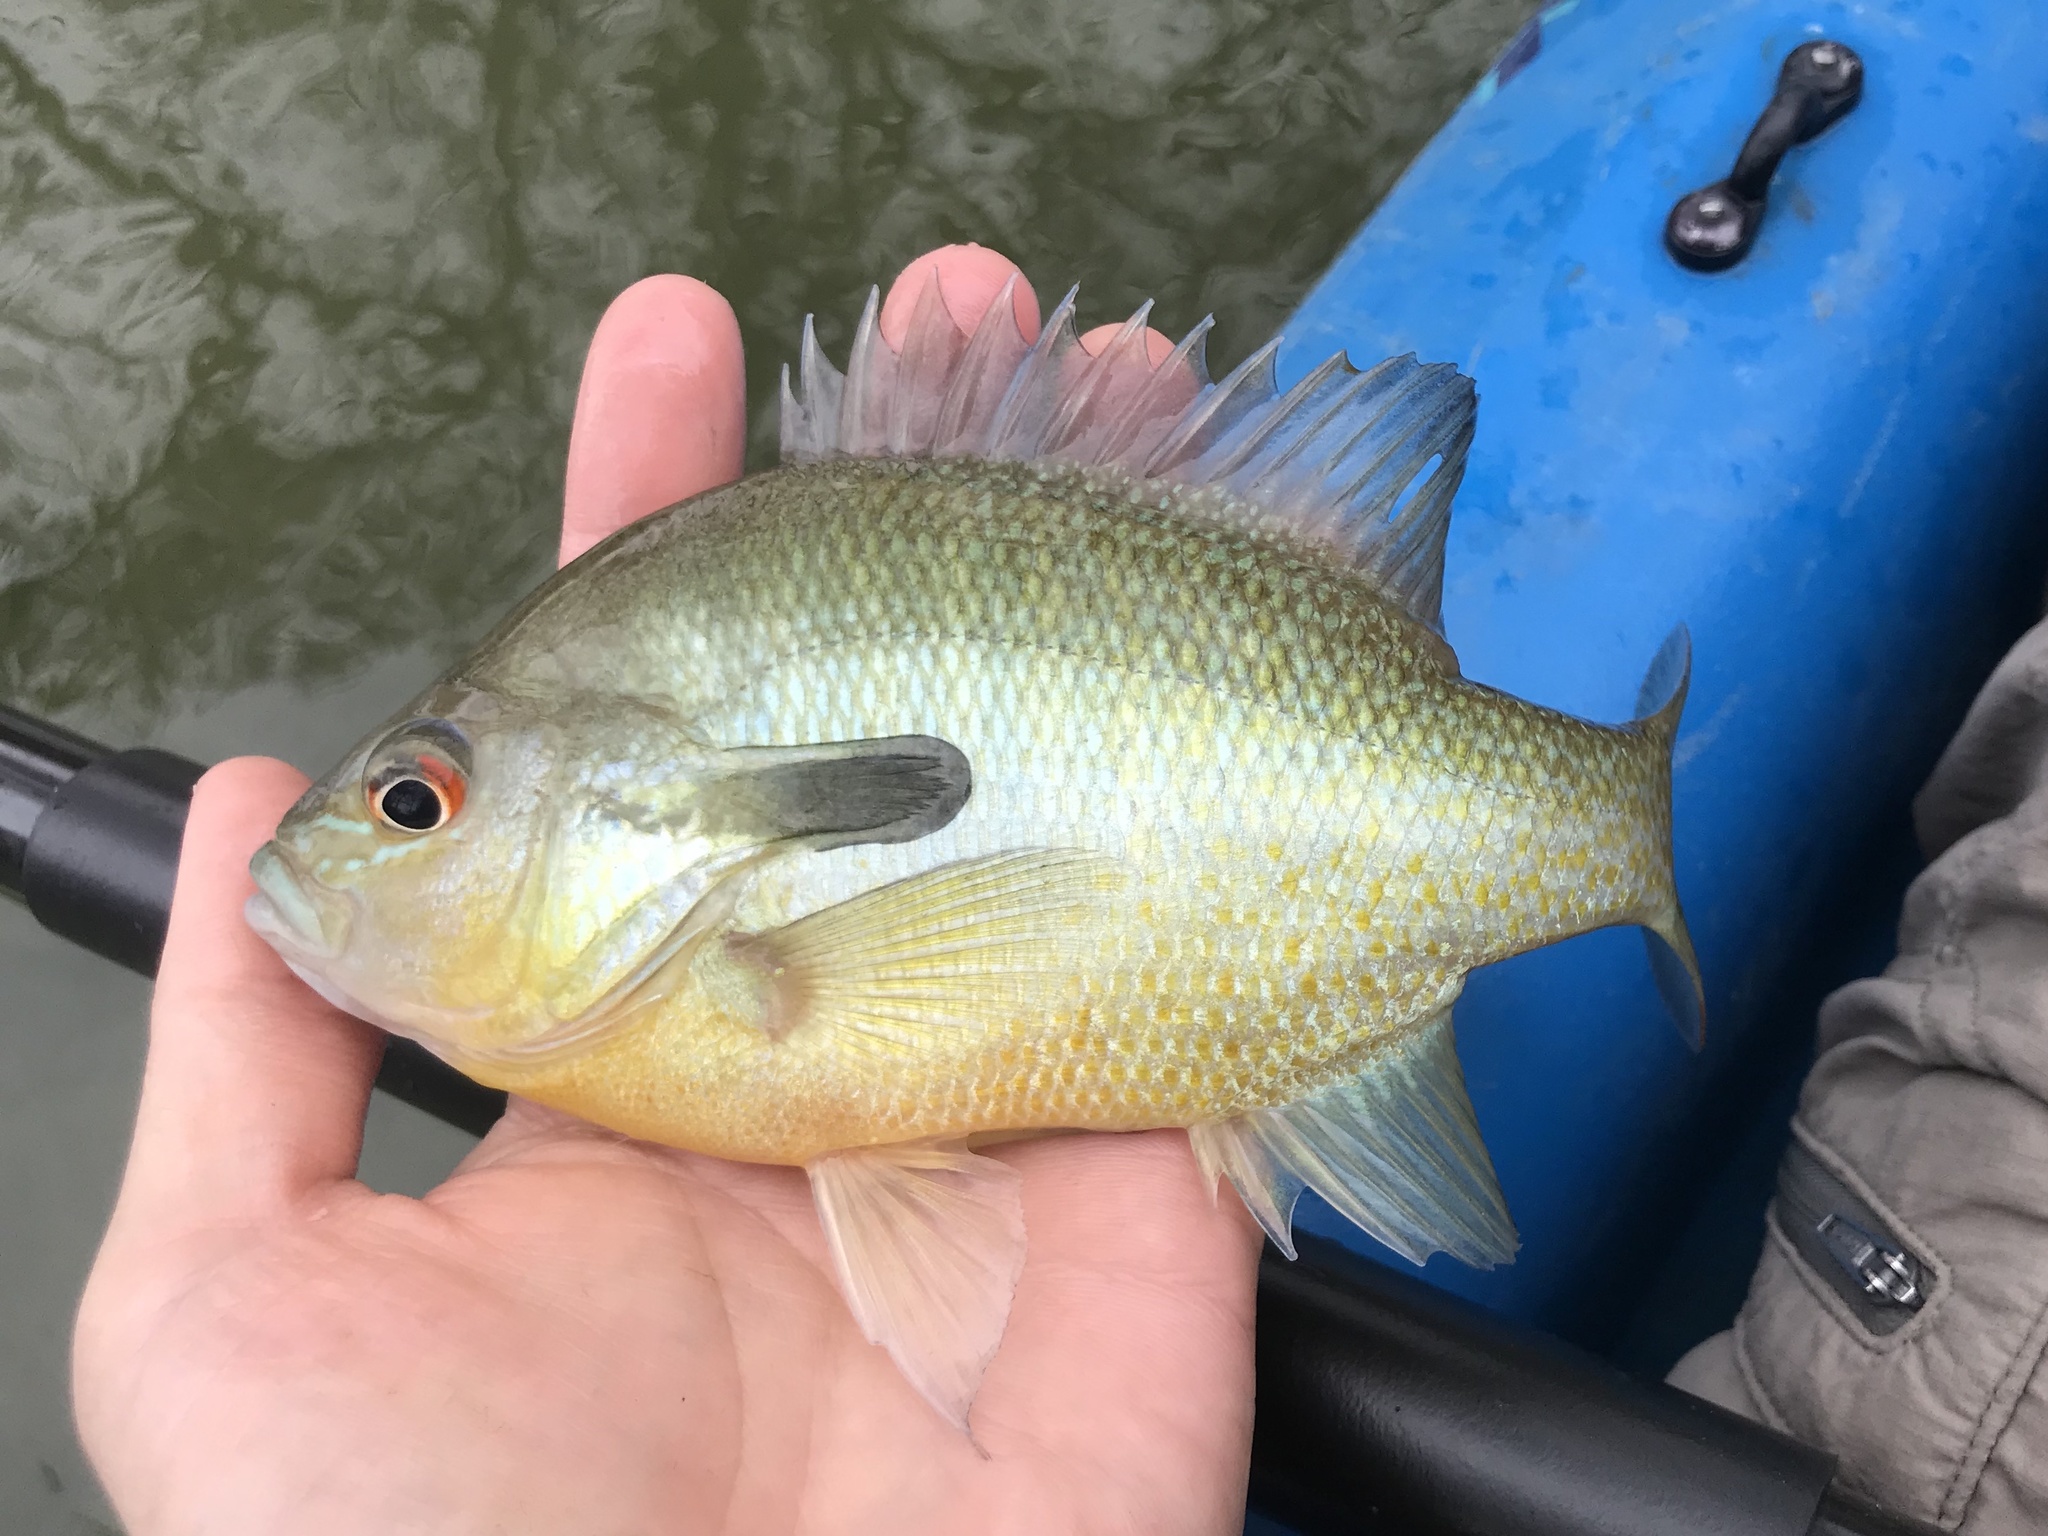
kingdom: Animalia
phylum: Chordata
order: Perciformes
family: Centrarchidae
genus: Lepomis
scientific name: Lepomis auritus
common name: Redbreast sunfish
